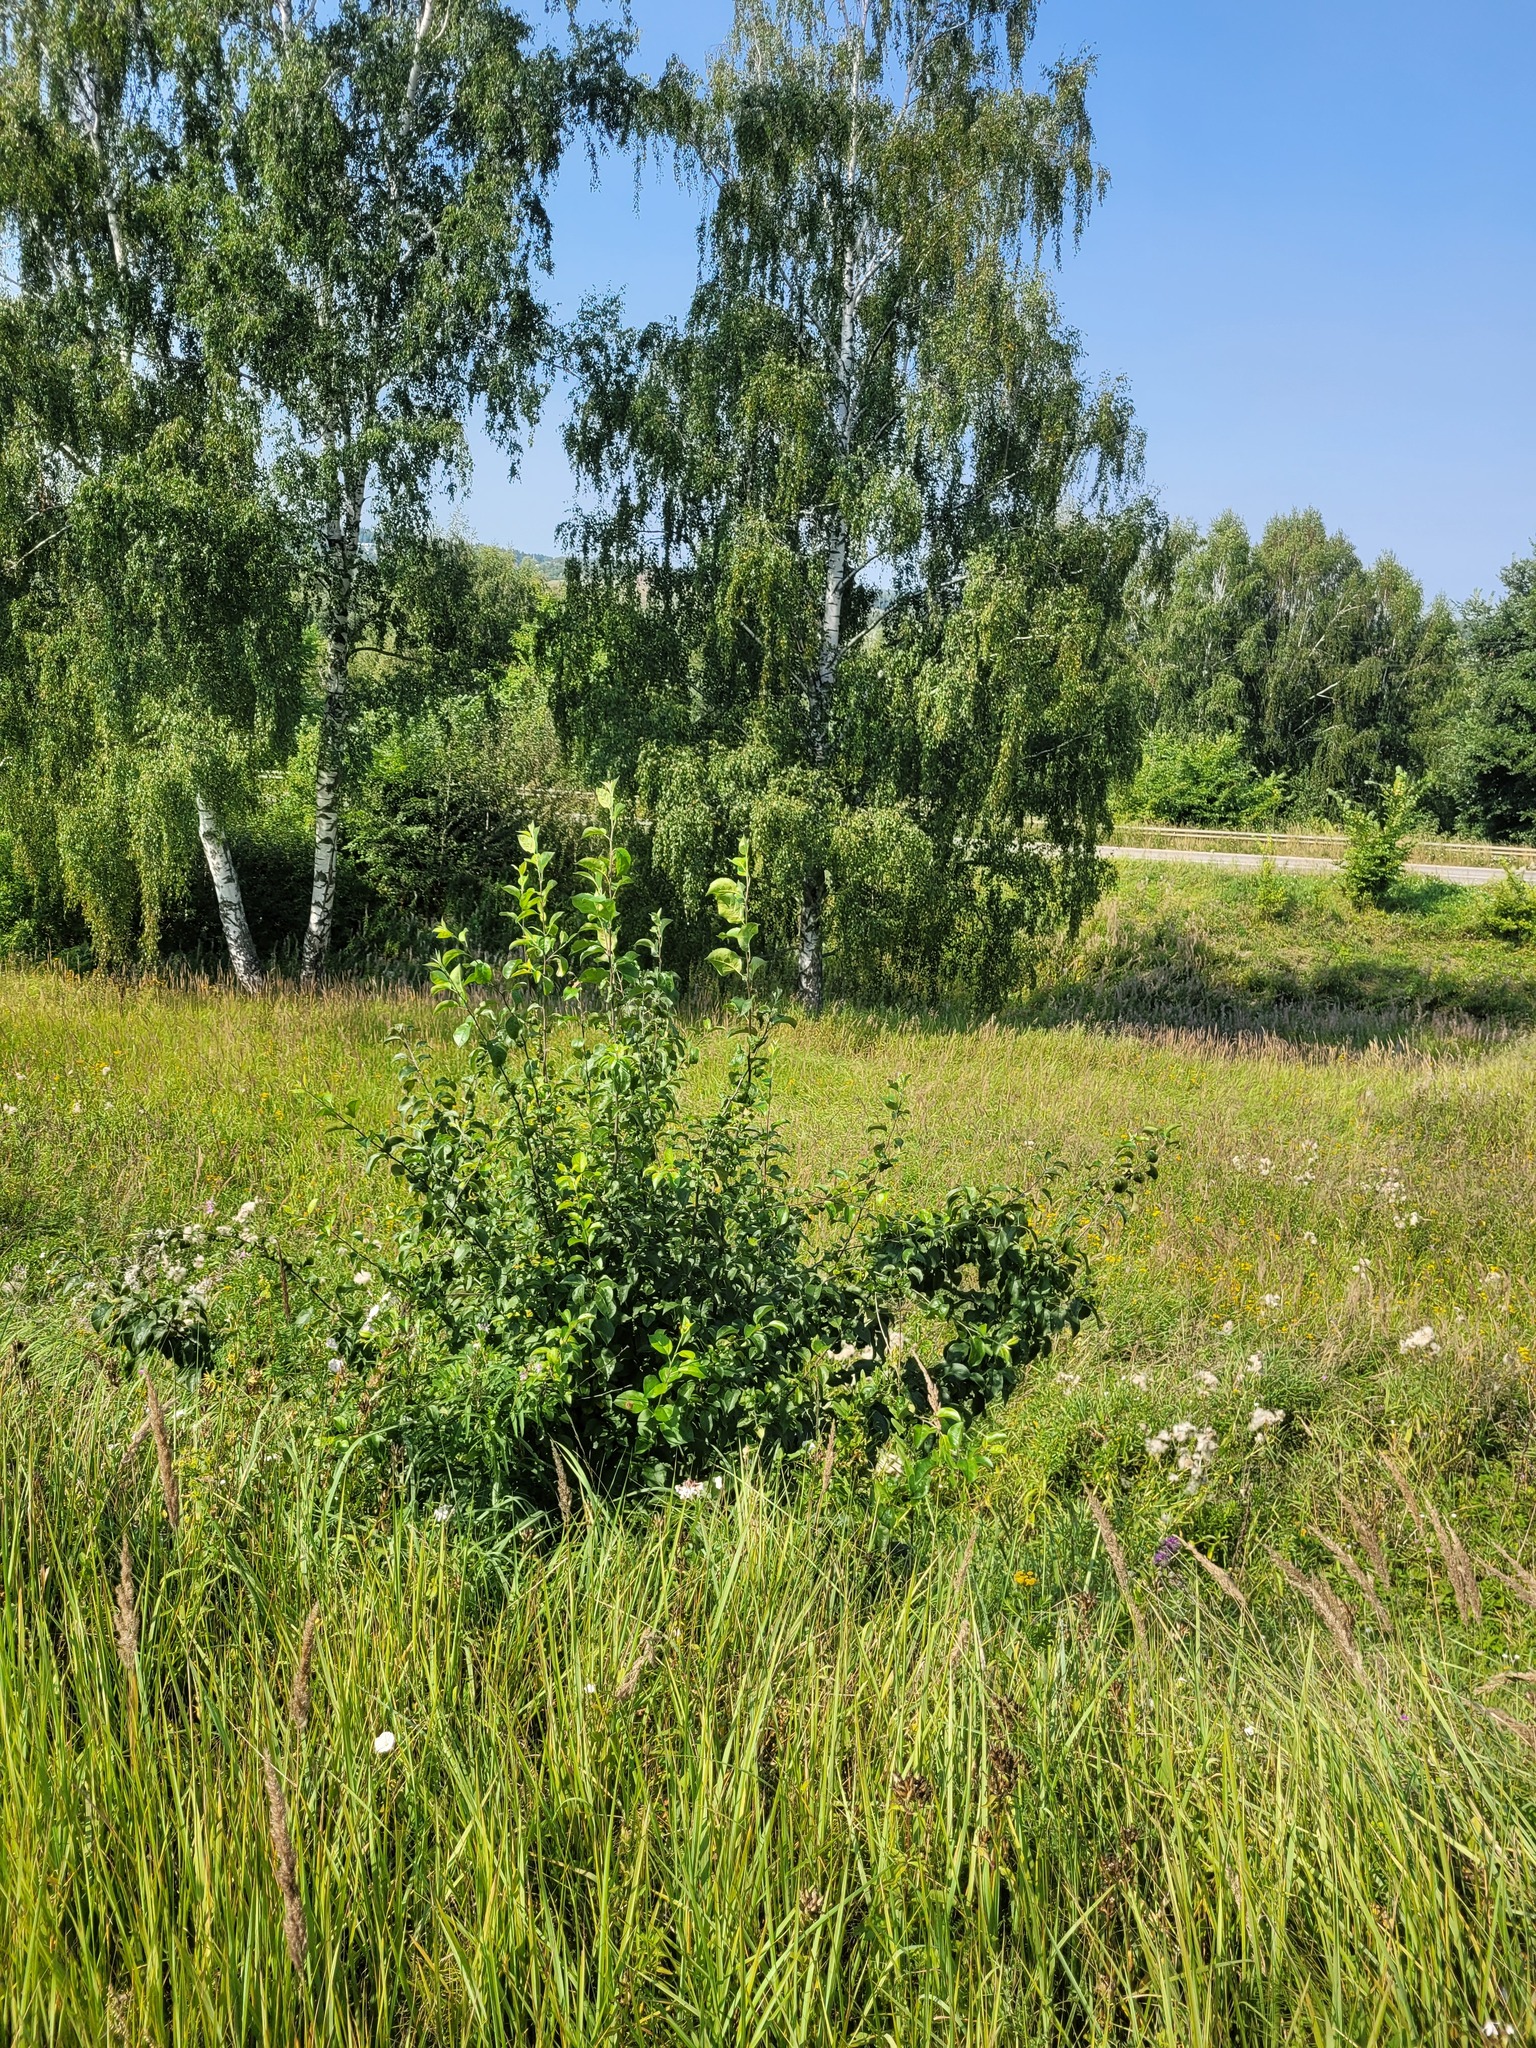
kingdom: Plantae
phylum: Tracheophyta
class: Magnoliopsida
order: Rosales
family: Rosaceae
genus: Malus
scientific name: Malus domestica
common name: Apple
